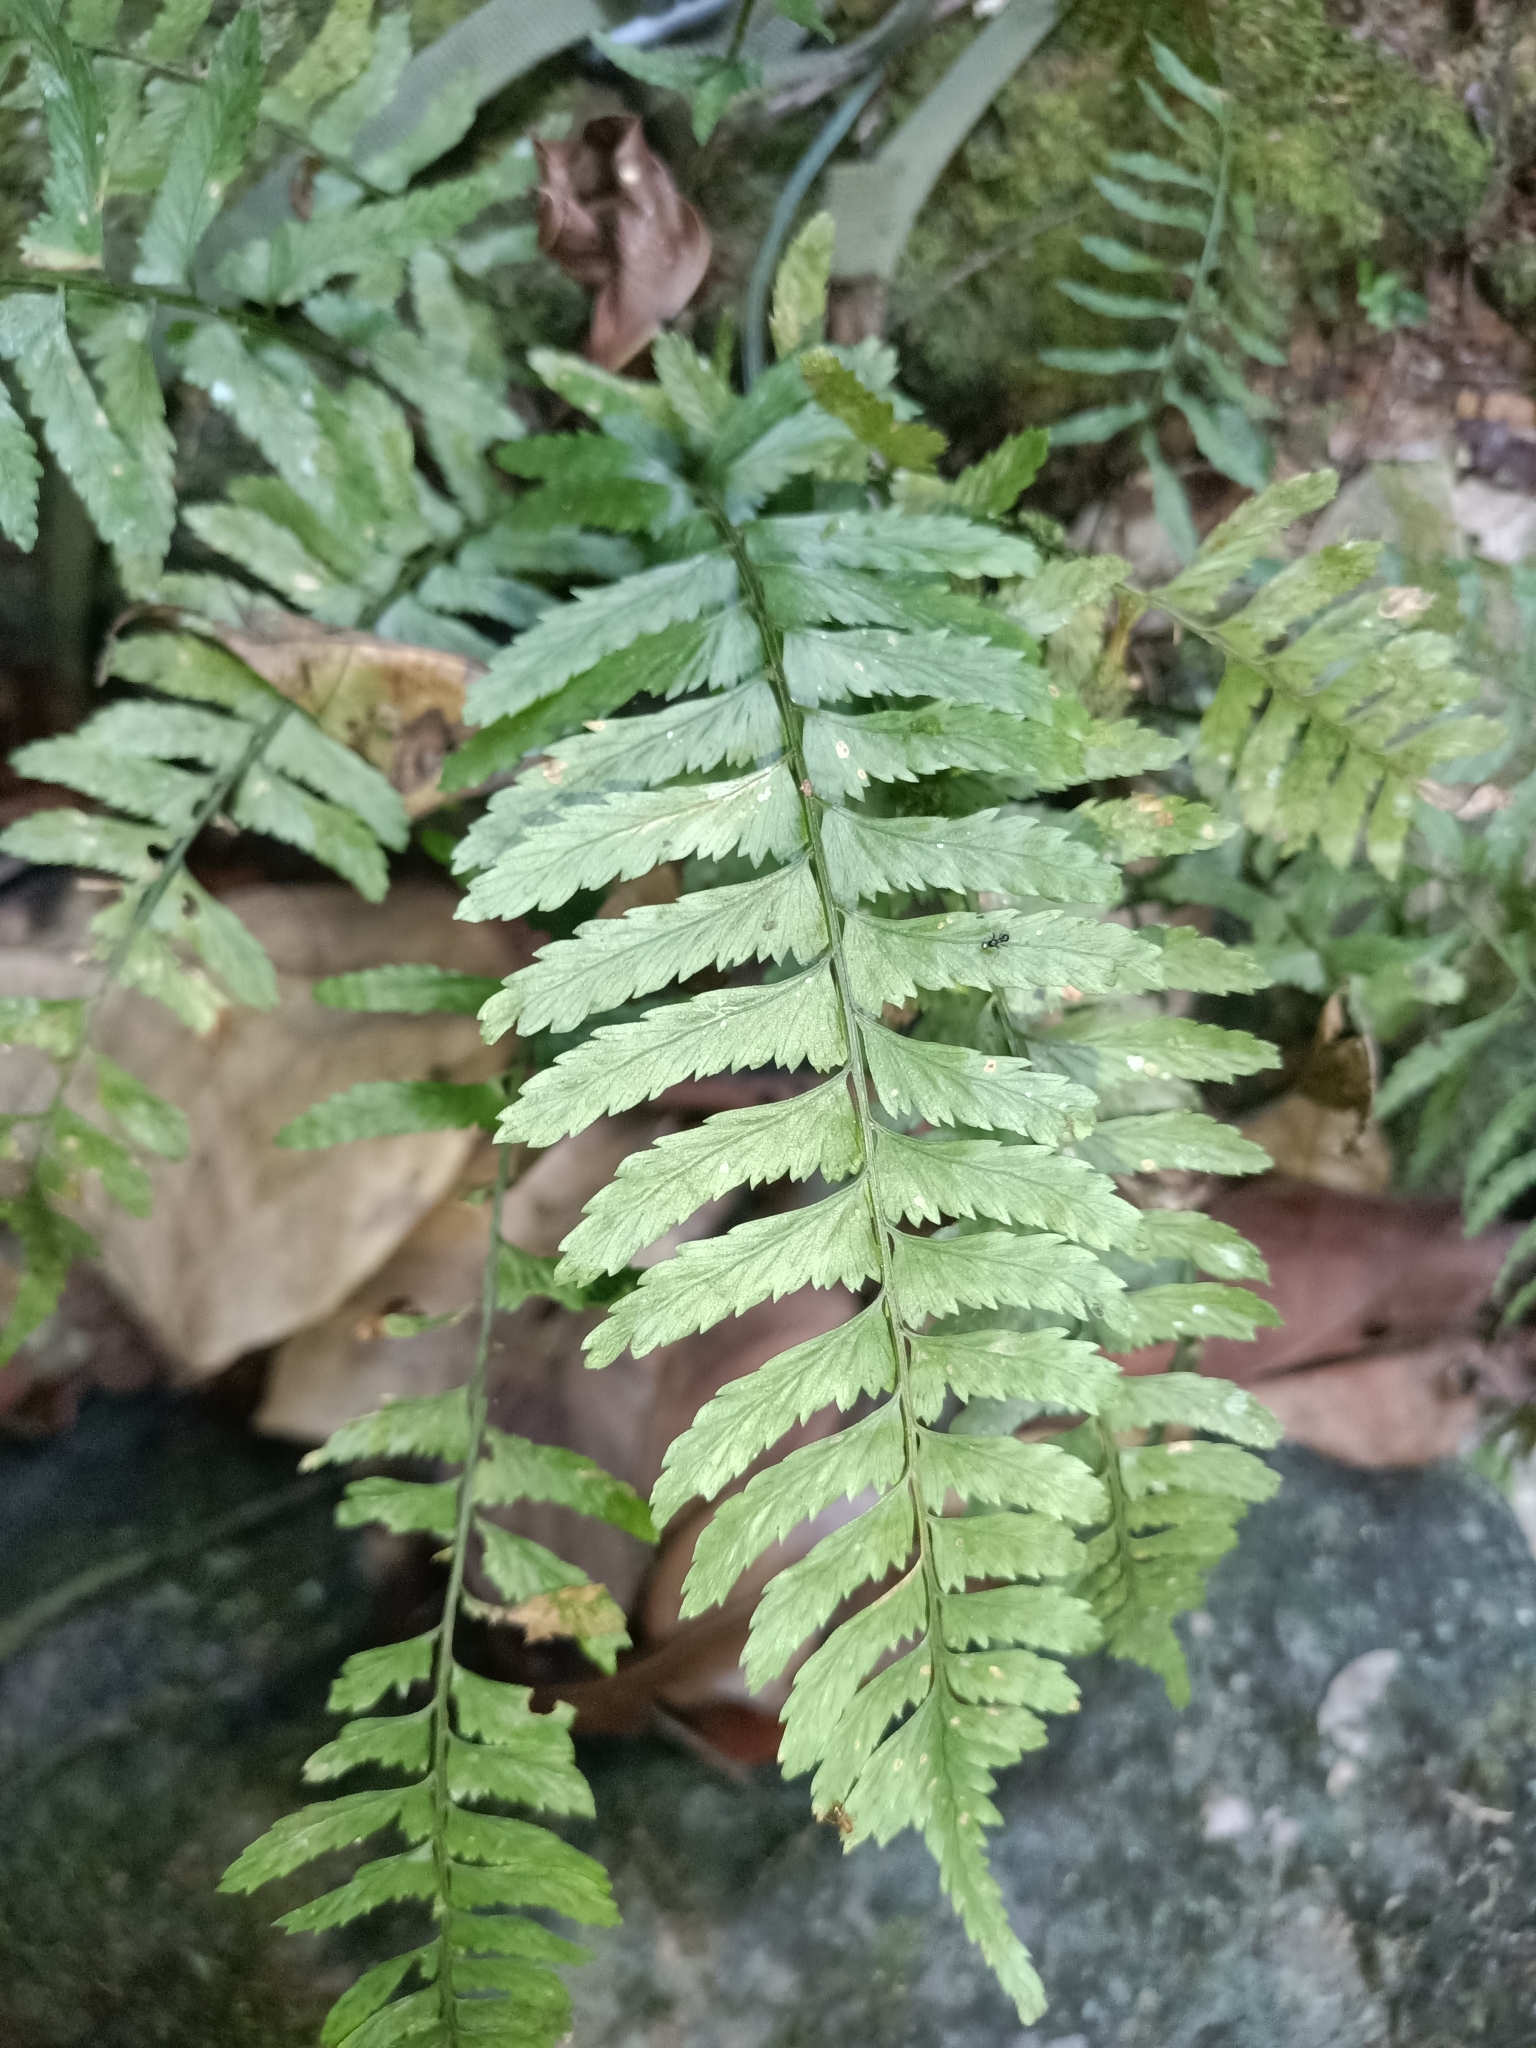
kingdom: Plantae
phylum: Tracheophyta
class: Polypodiopsida
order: Polypodiales
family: Aspleniaceae
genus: Asplenium
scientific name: Asplenium hostmannii
